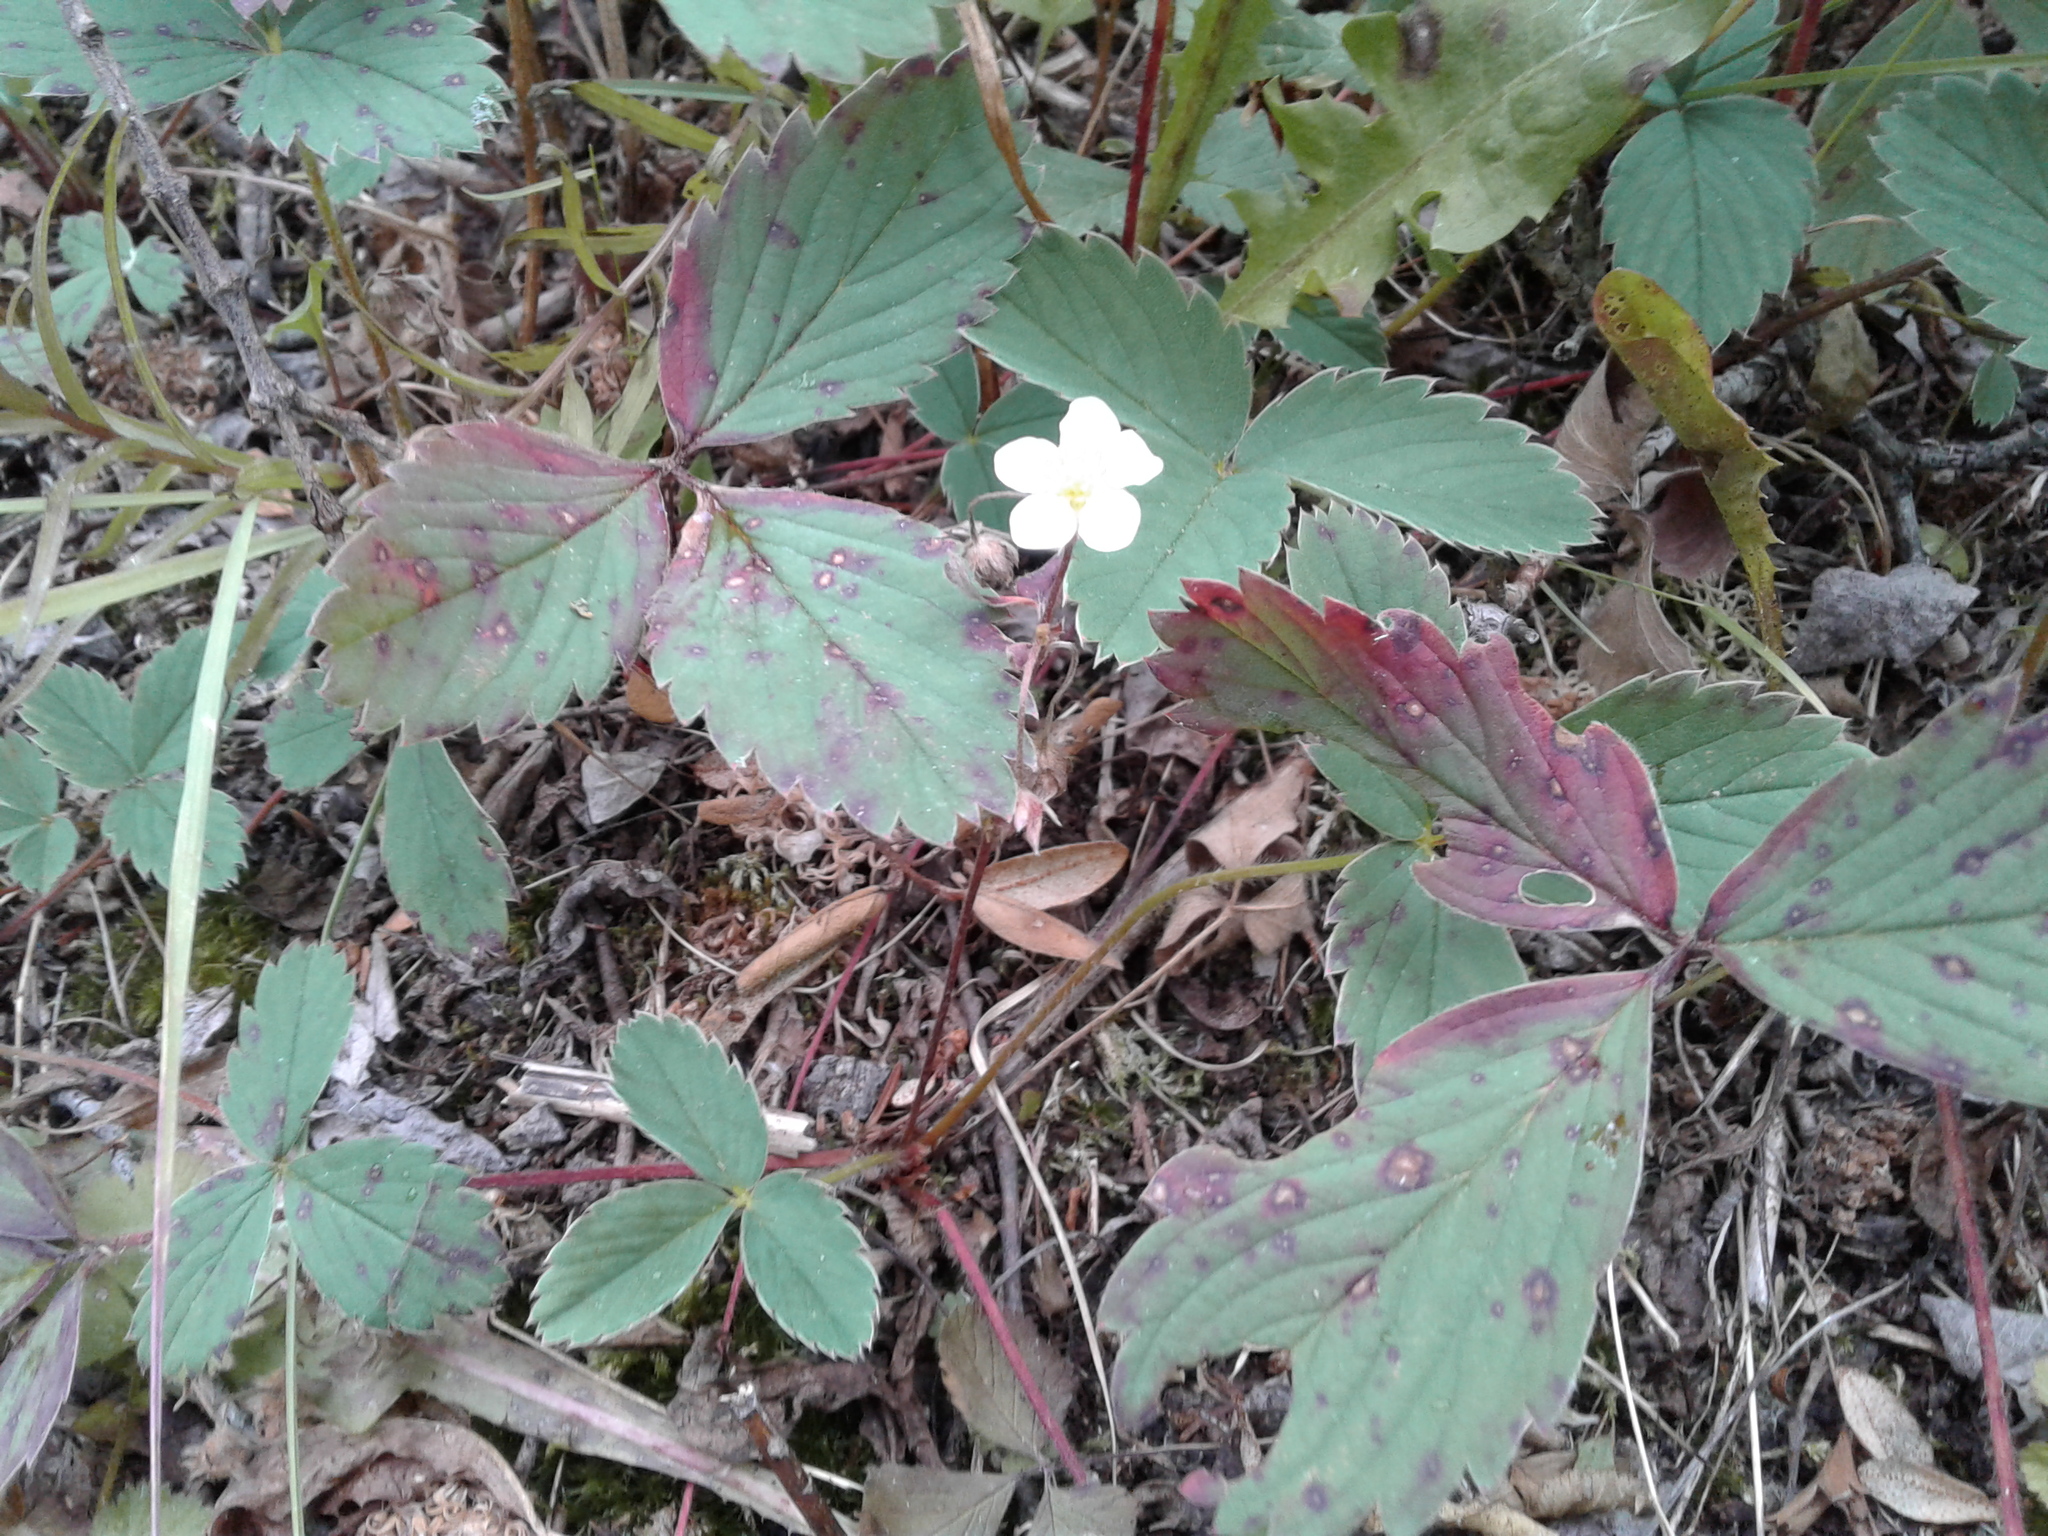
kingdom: Plantae
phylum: Tracheophyta
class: Magnoliopsida
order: Rosales
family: Rosaceae
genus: Fragaria
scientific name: Fragaria virginiana
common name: Thickleaved wild strawberry
